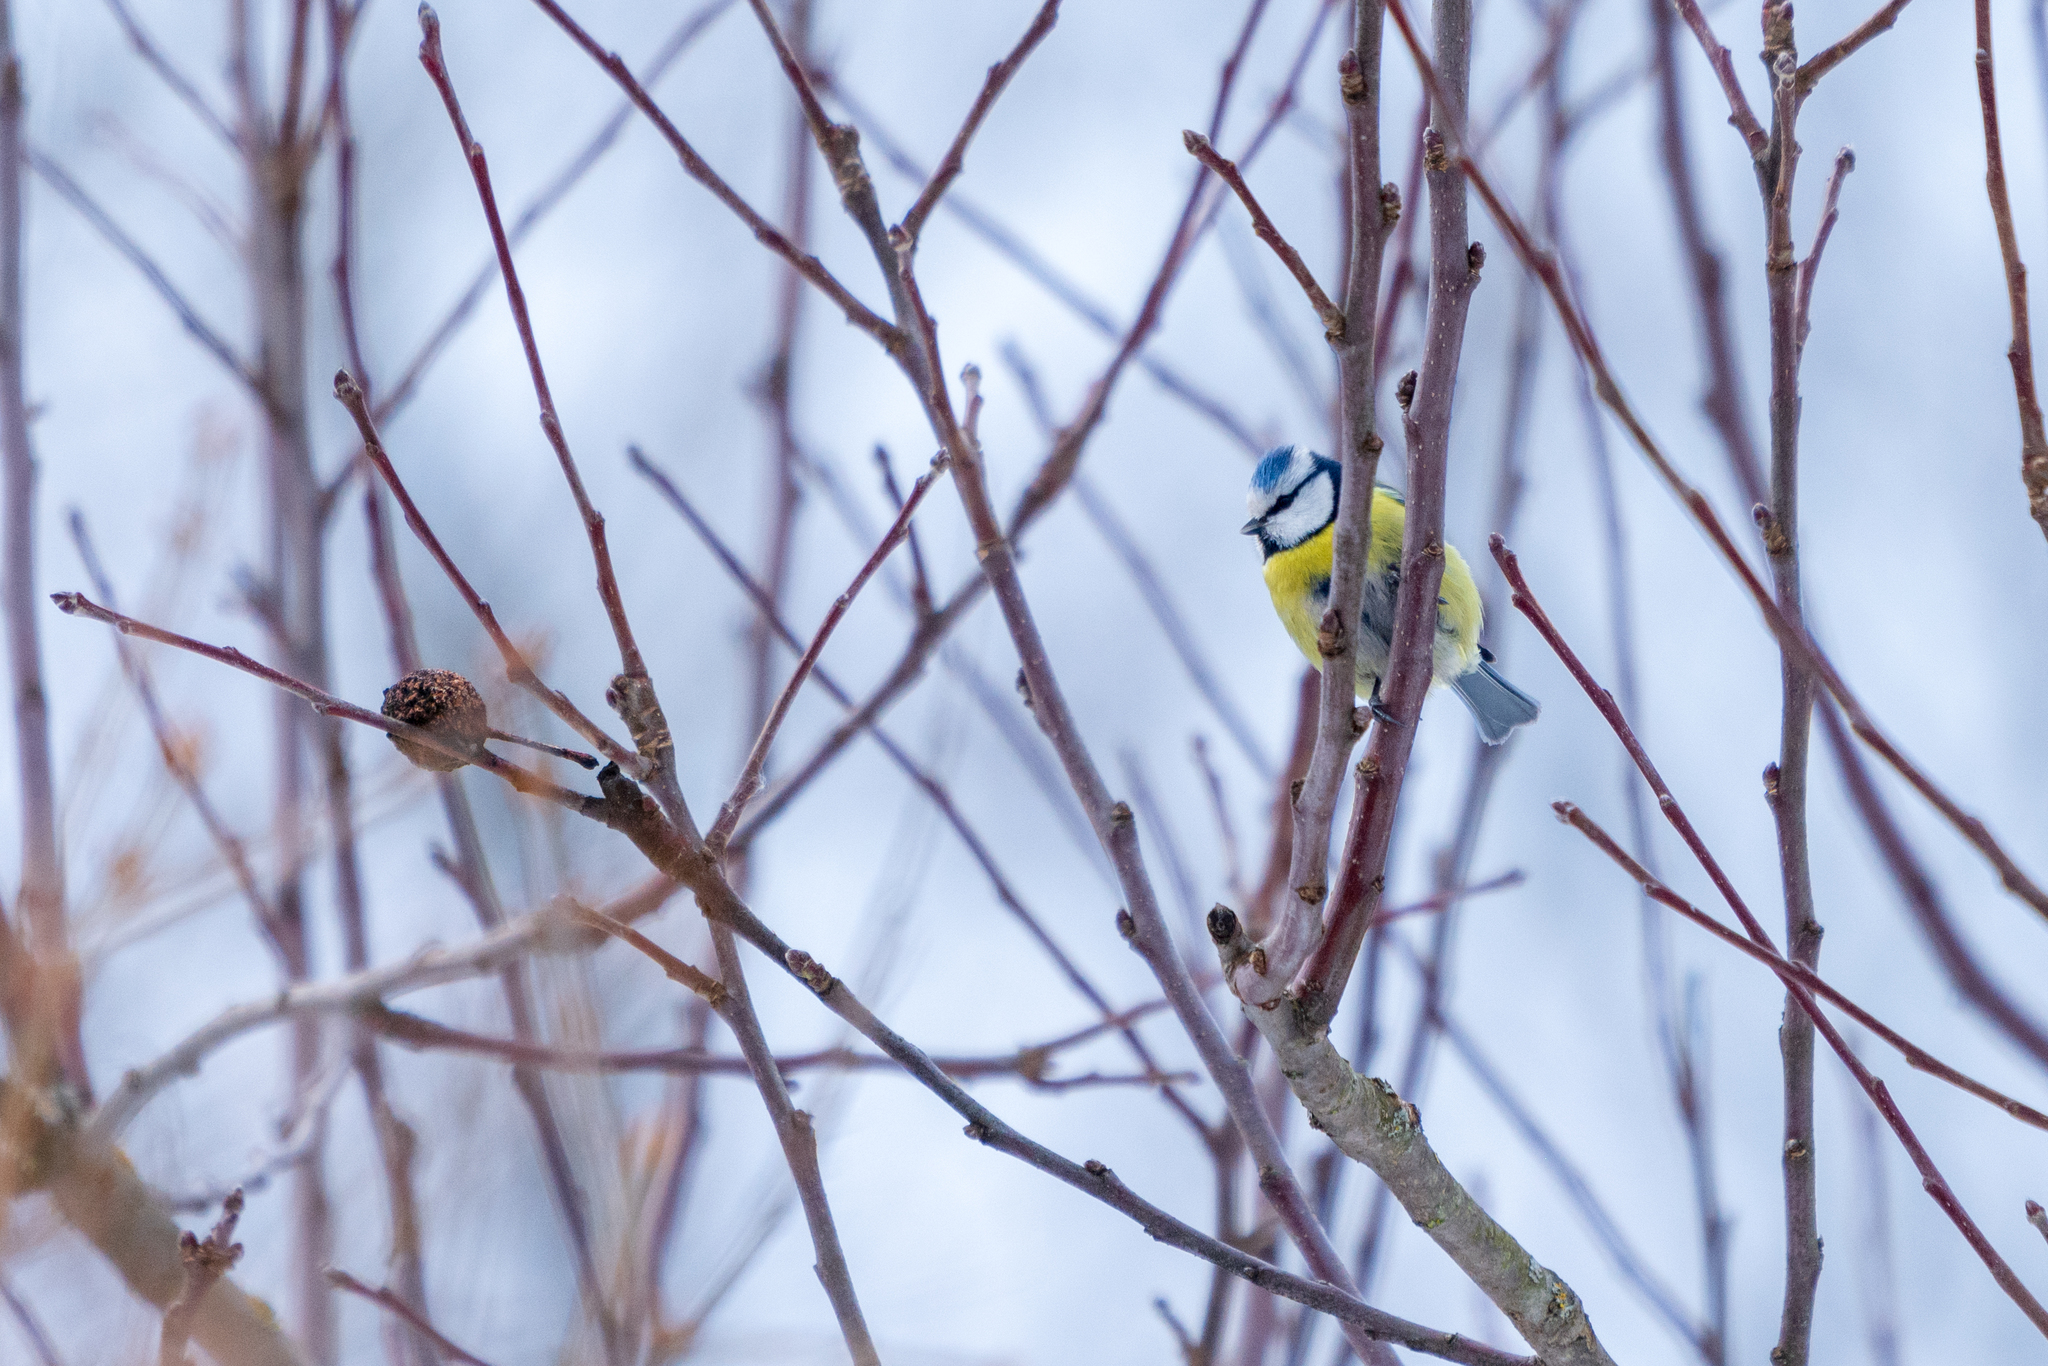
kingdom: Animalia
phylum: Chordata
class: Aves
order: Passeriformes
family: Paridae
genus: Cyanistes
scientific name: Cyanistes caeruleus
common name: Eurasian blue tit
